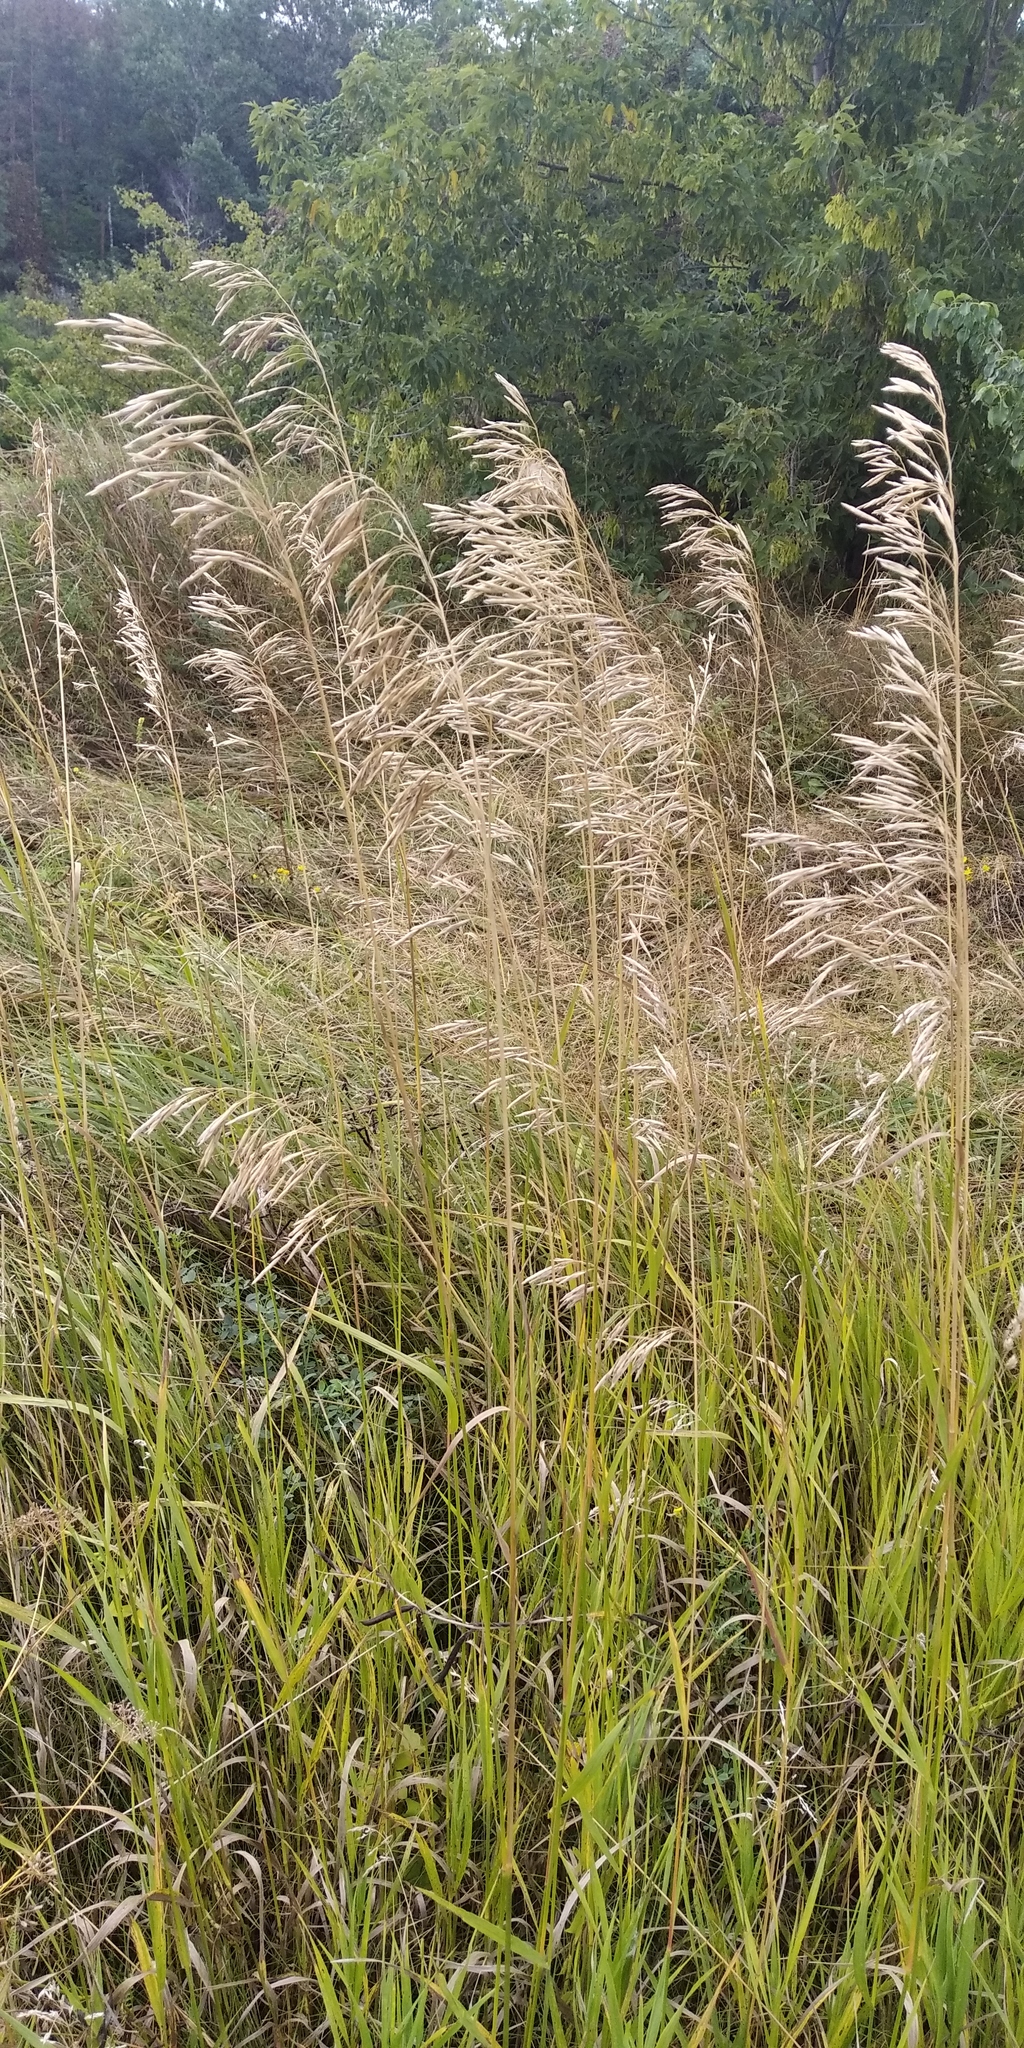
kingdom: Plantae
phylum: Tracheophyta
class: Liliopsida
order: Poales
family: Poaceae
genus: Bromus
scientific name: Bromus inermis
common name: Smooth brome
